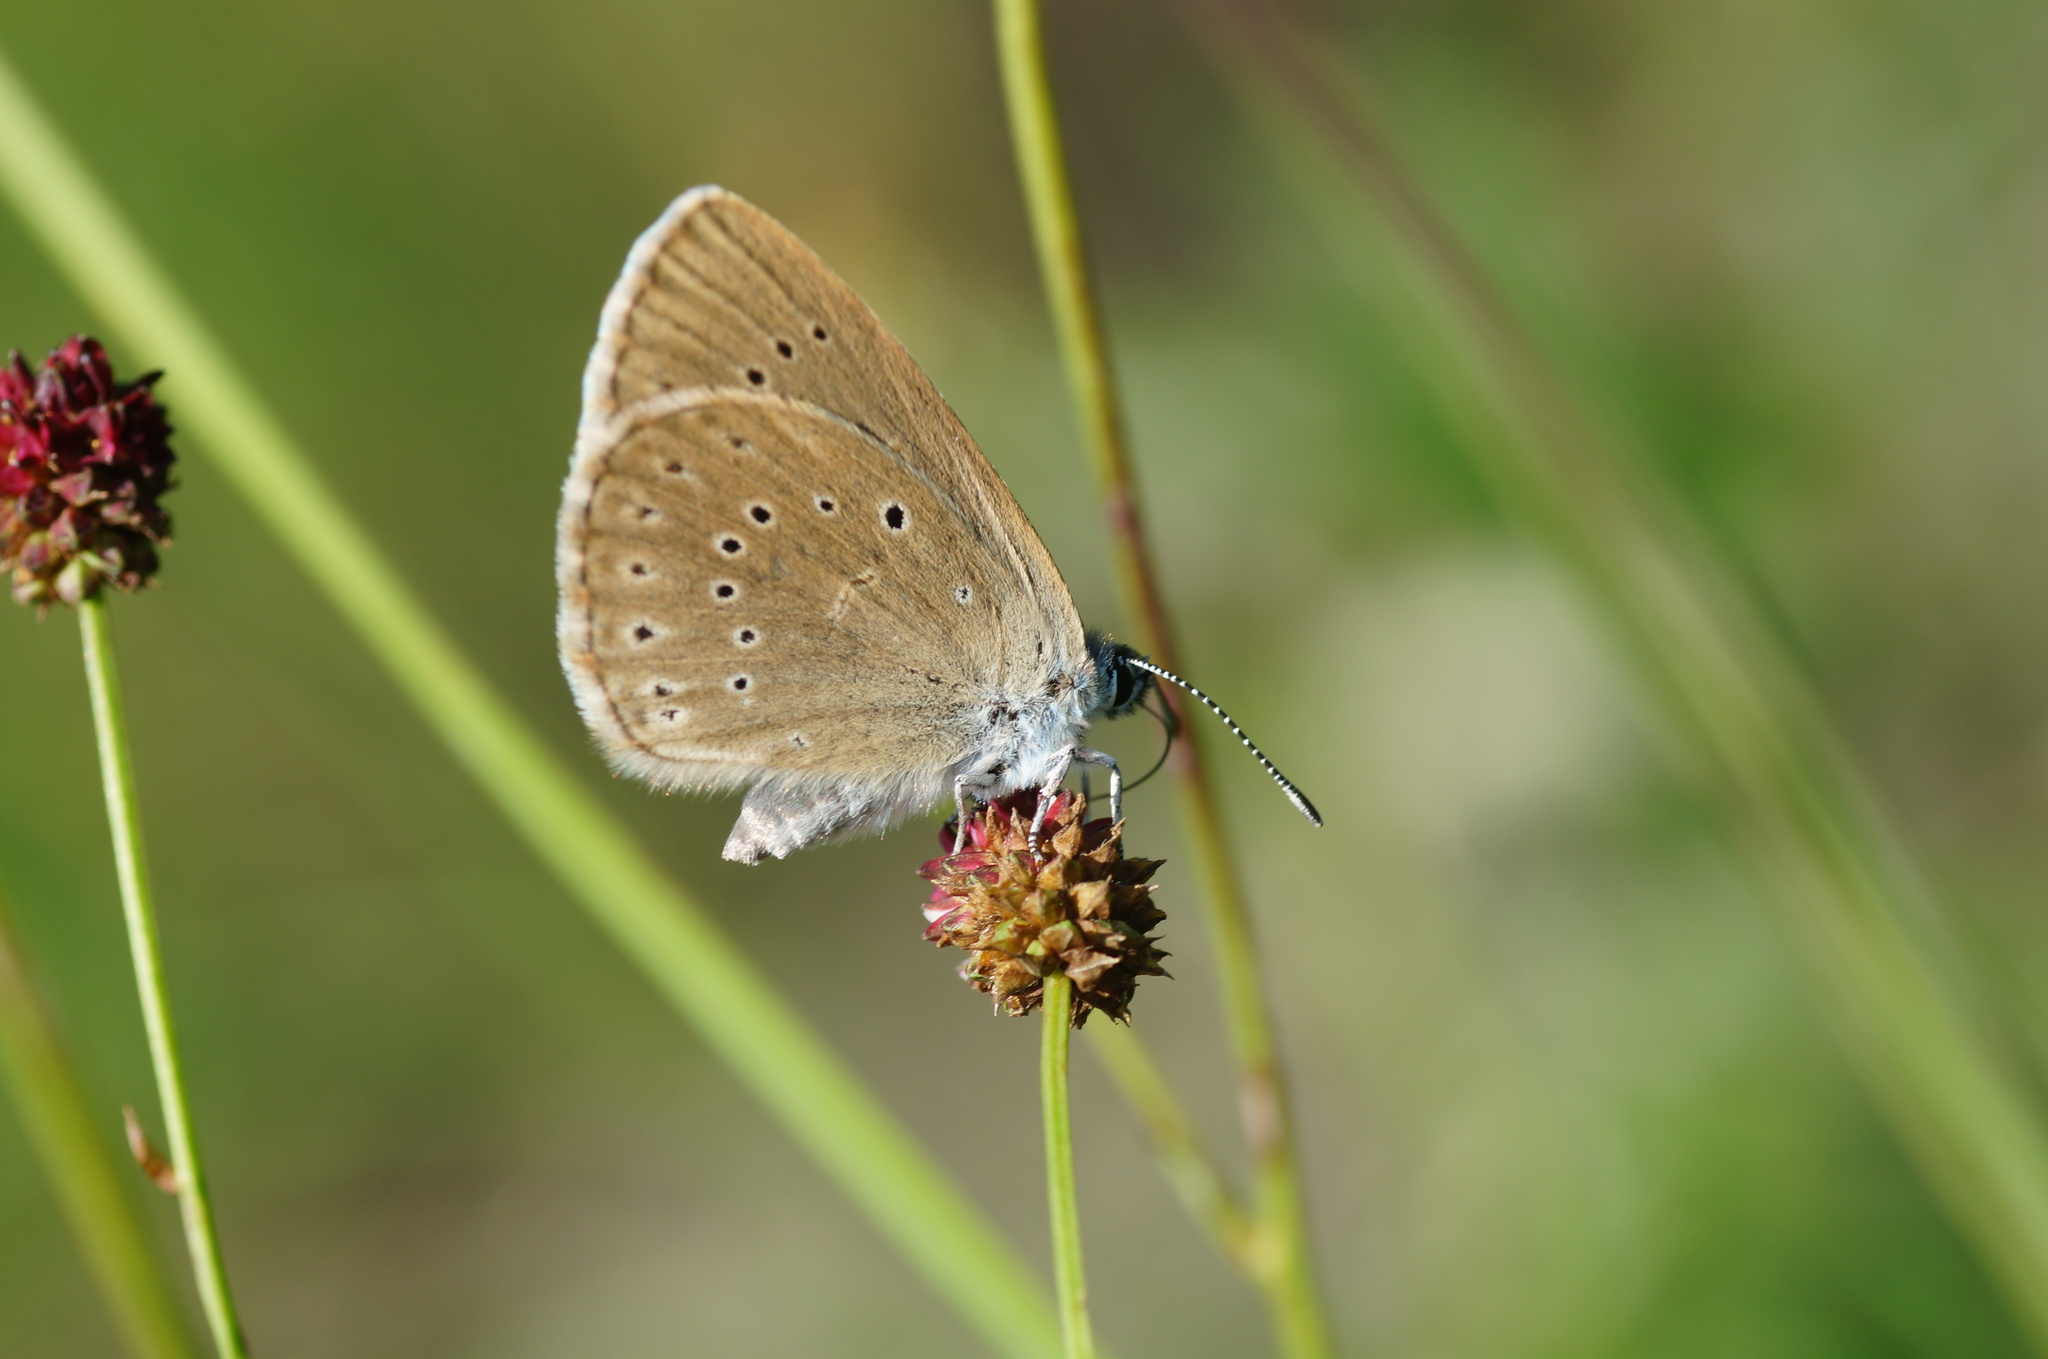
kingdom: Animalia
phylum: Arthropoda
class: Insecta
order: Lepidoptera
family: Lycaenidae
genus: Phengaris
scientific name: Phengaris teleius
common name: Scarce large blue
